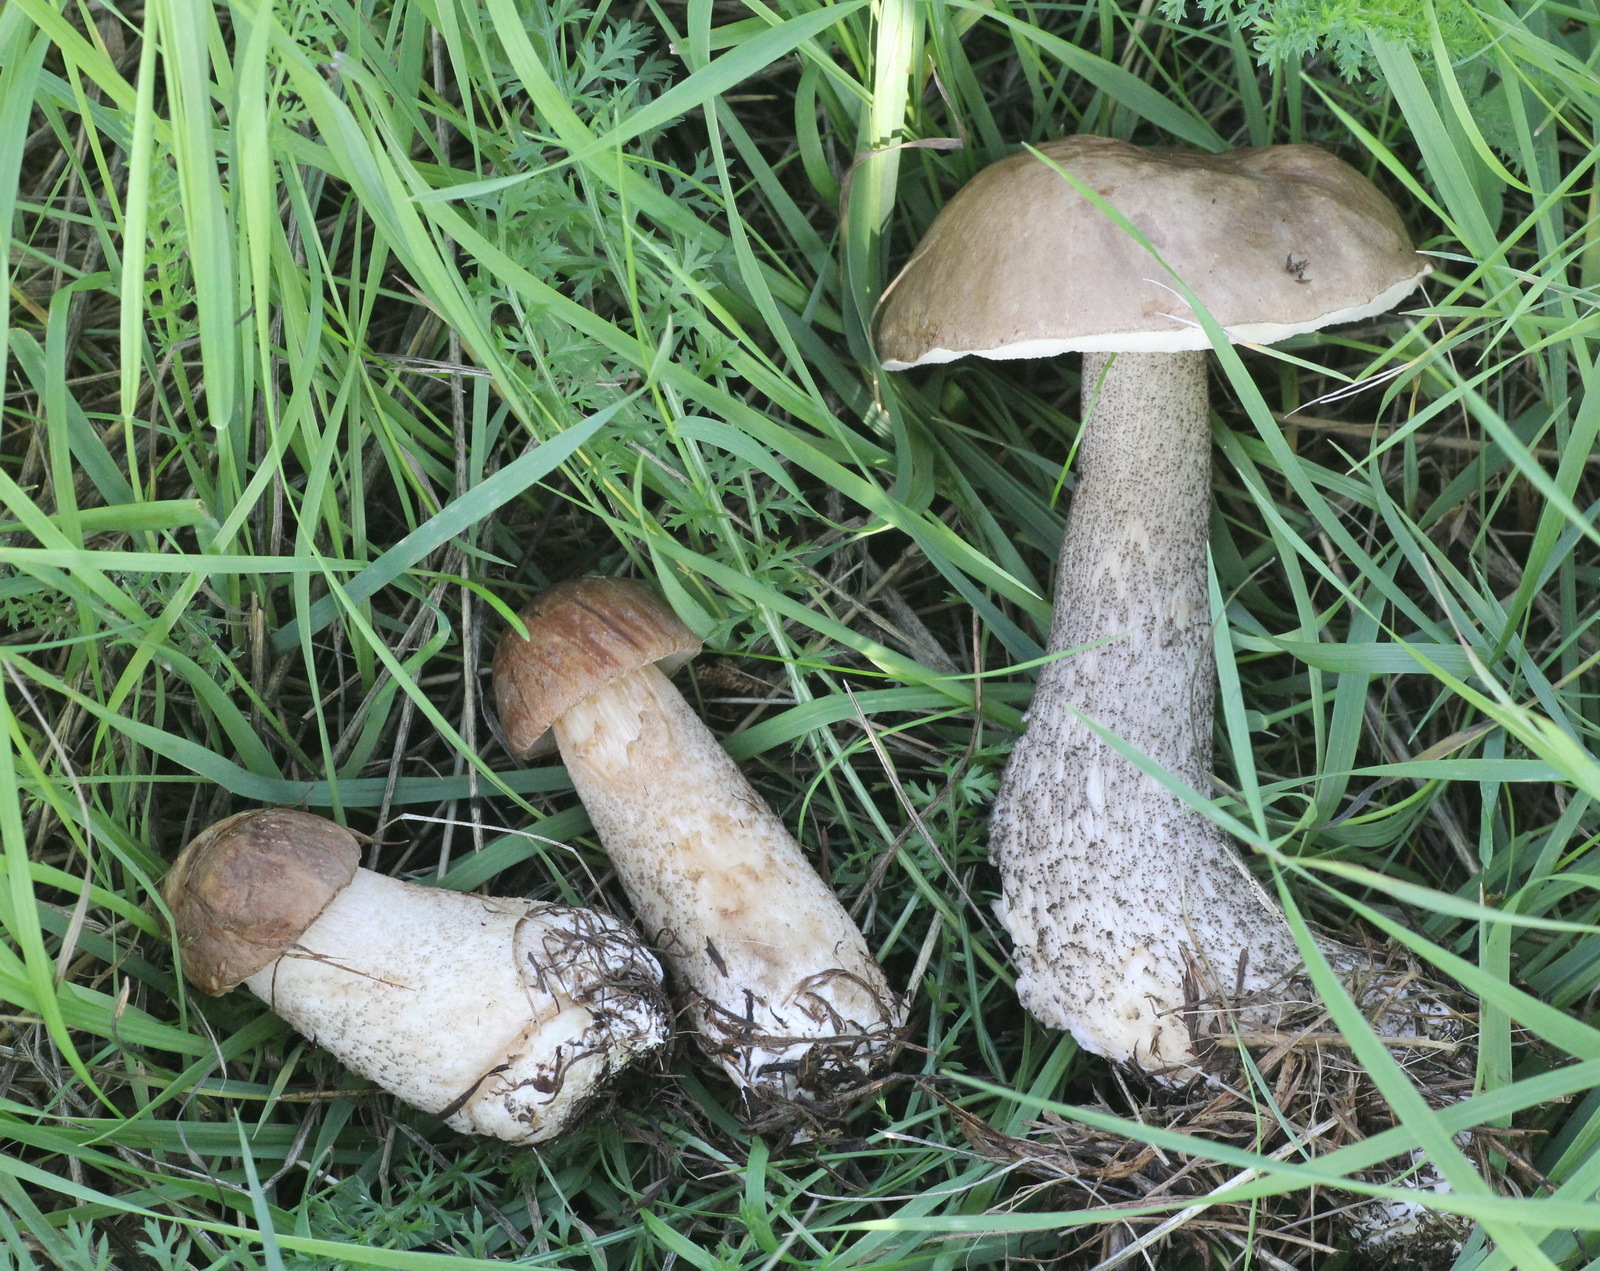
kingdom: Fungi
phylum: Basidiomycota
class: Agaricomycetes
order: Boletales
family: Boletaceae
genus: Leccinum
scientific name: Leccinum scabrum
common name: Blushing bolete
